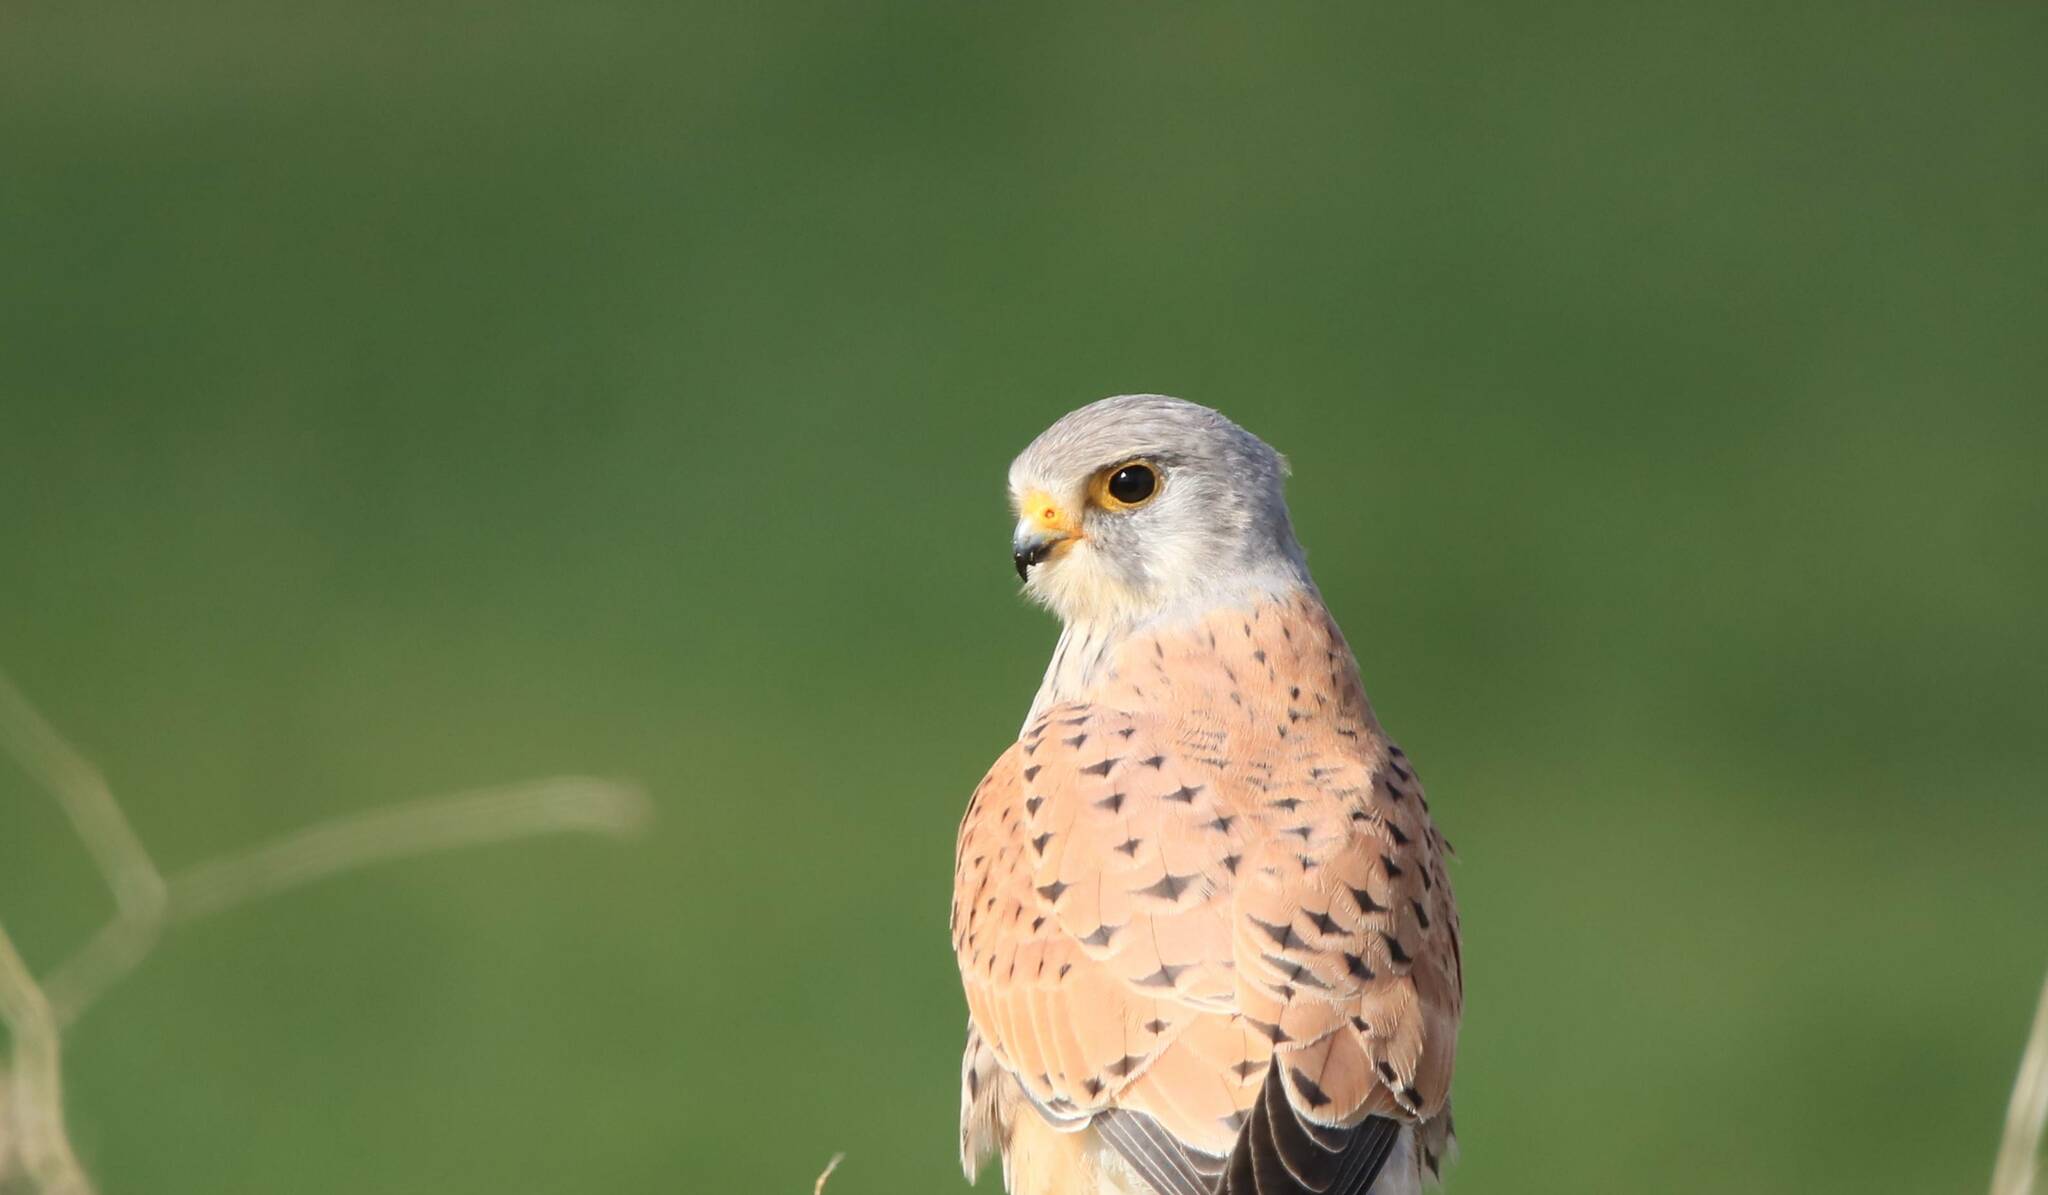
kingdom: Animalia
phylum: Chordata
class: Aves
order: Falconiformes
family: Falconidae
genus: Falco
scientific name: Falco tinnunculus
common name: Common kestrel
